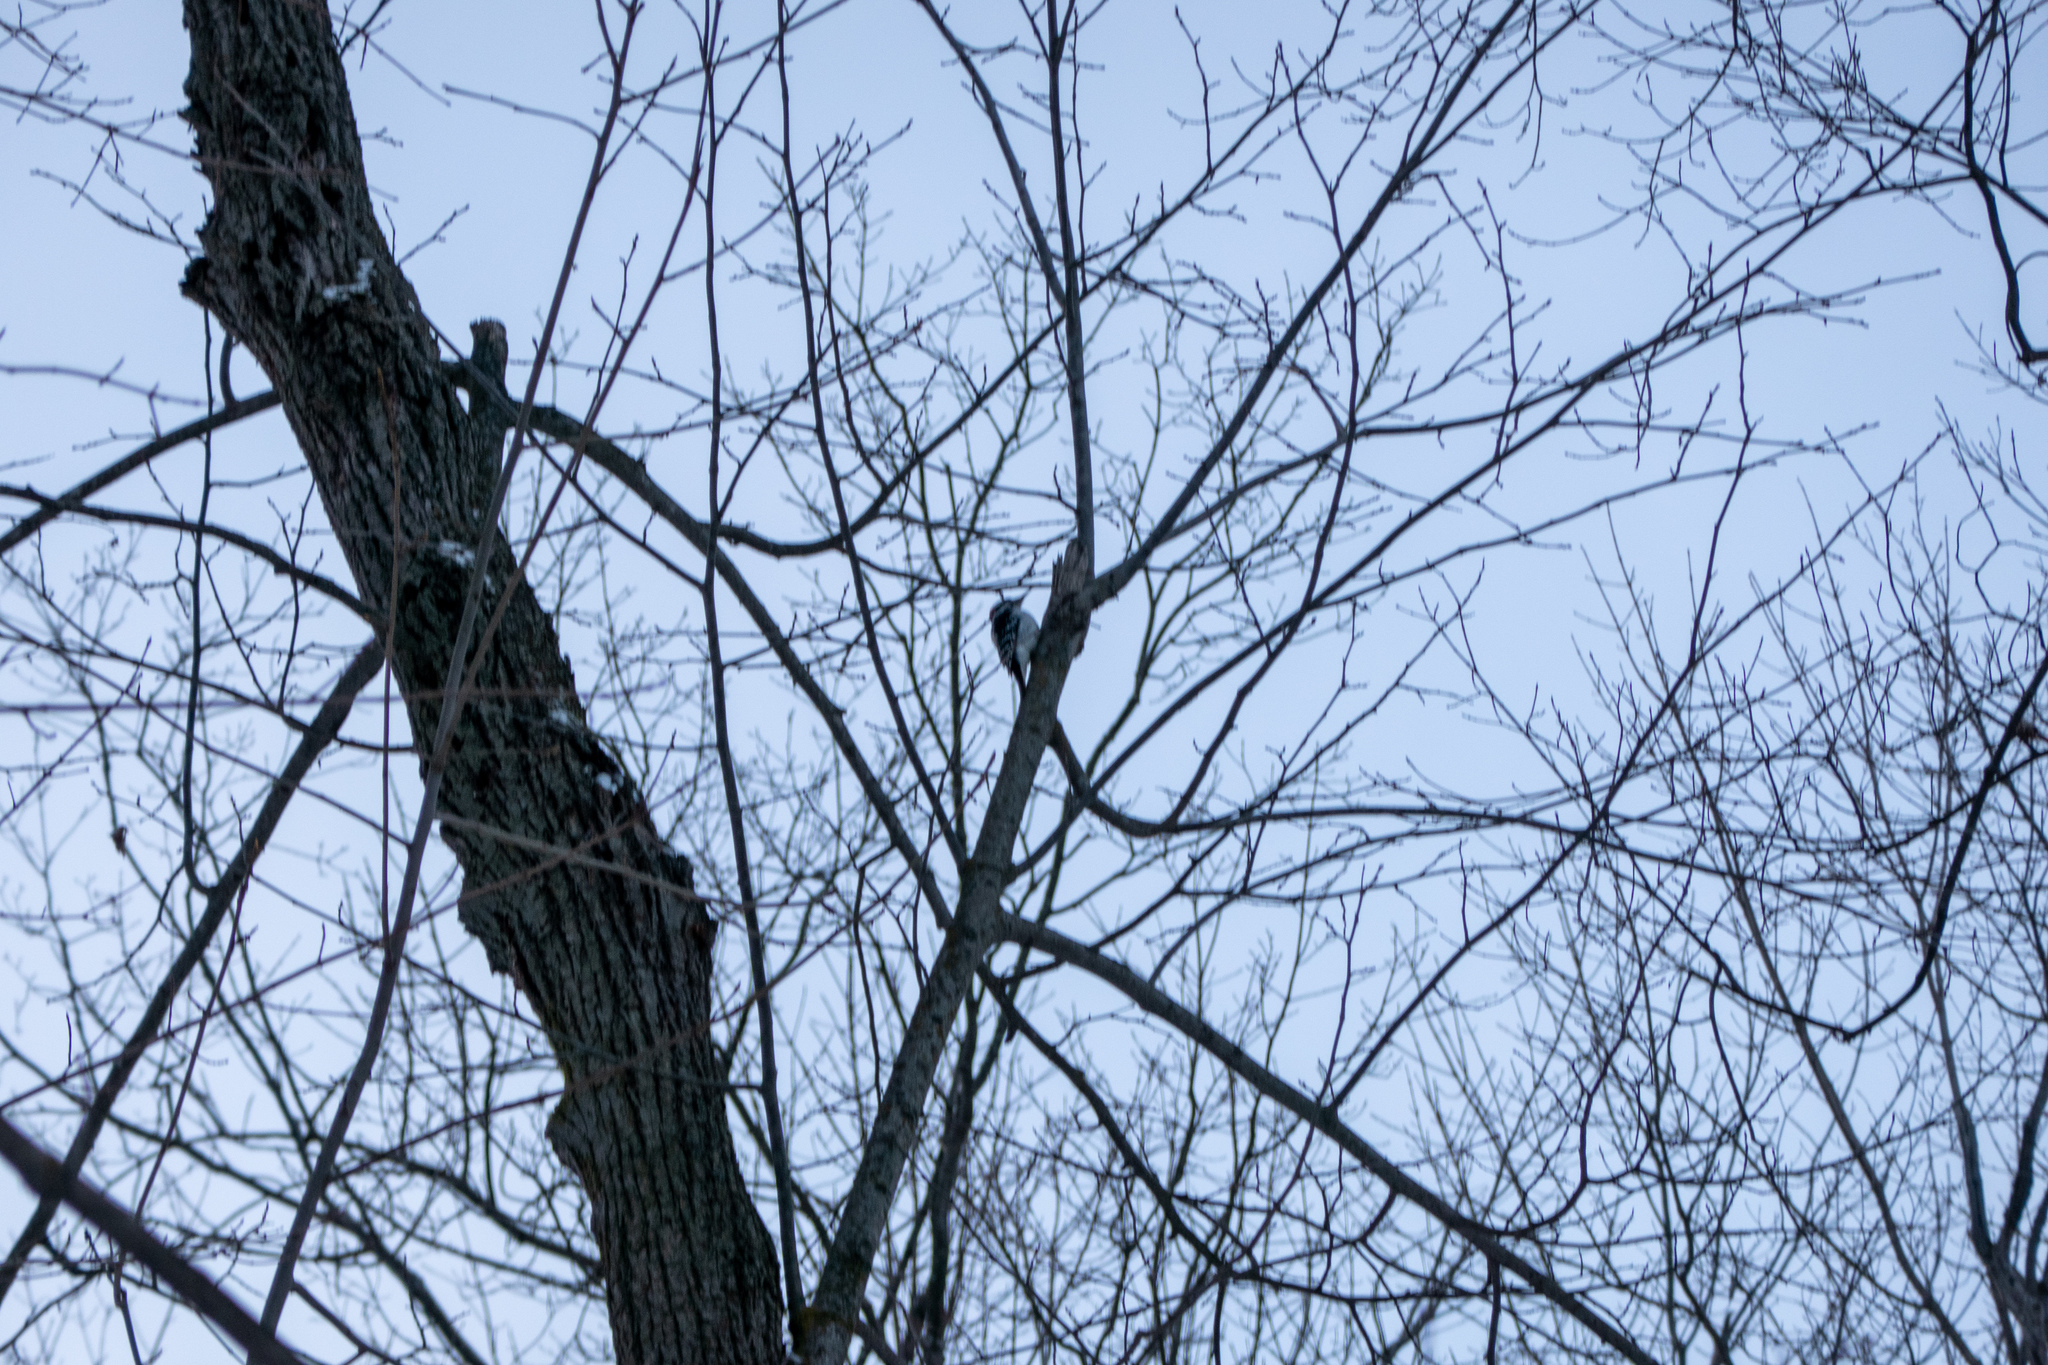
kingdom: Animalia
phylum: Chordata
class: Aves
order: Piciformes
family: Picidae
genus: Dryobates
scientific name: Dryobates pubescens
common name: Downy woodpecker
